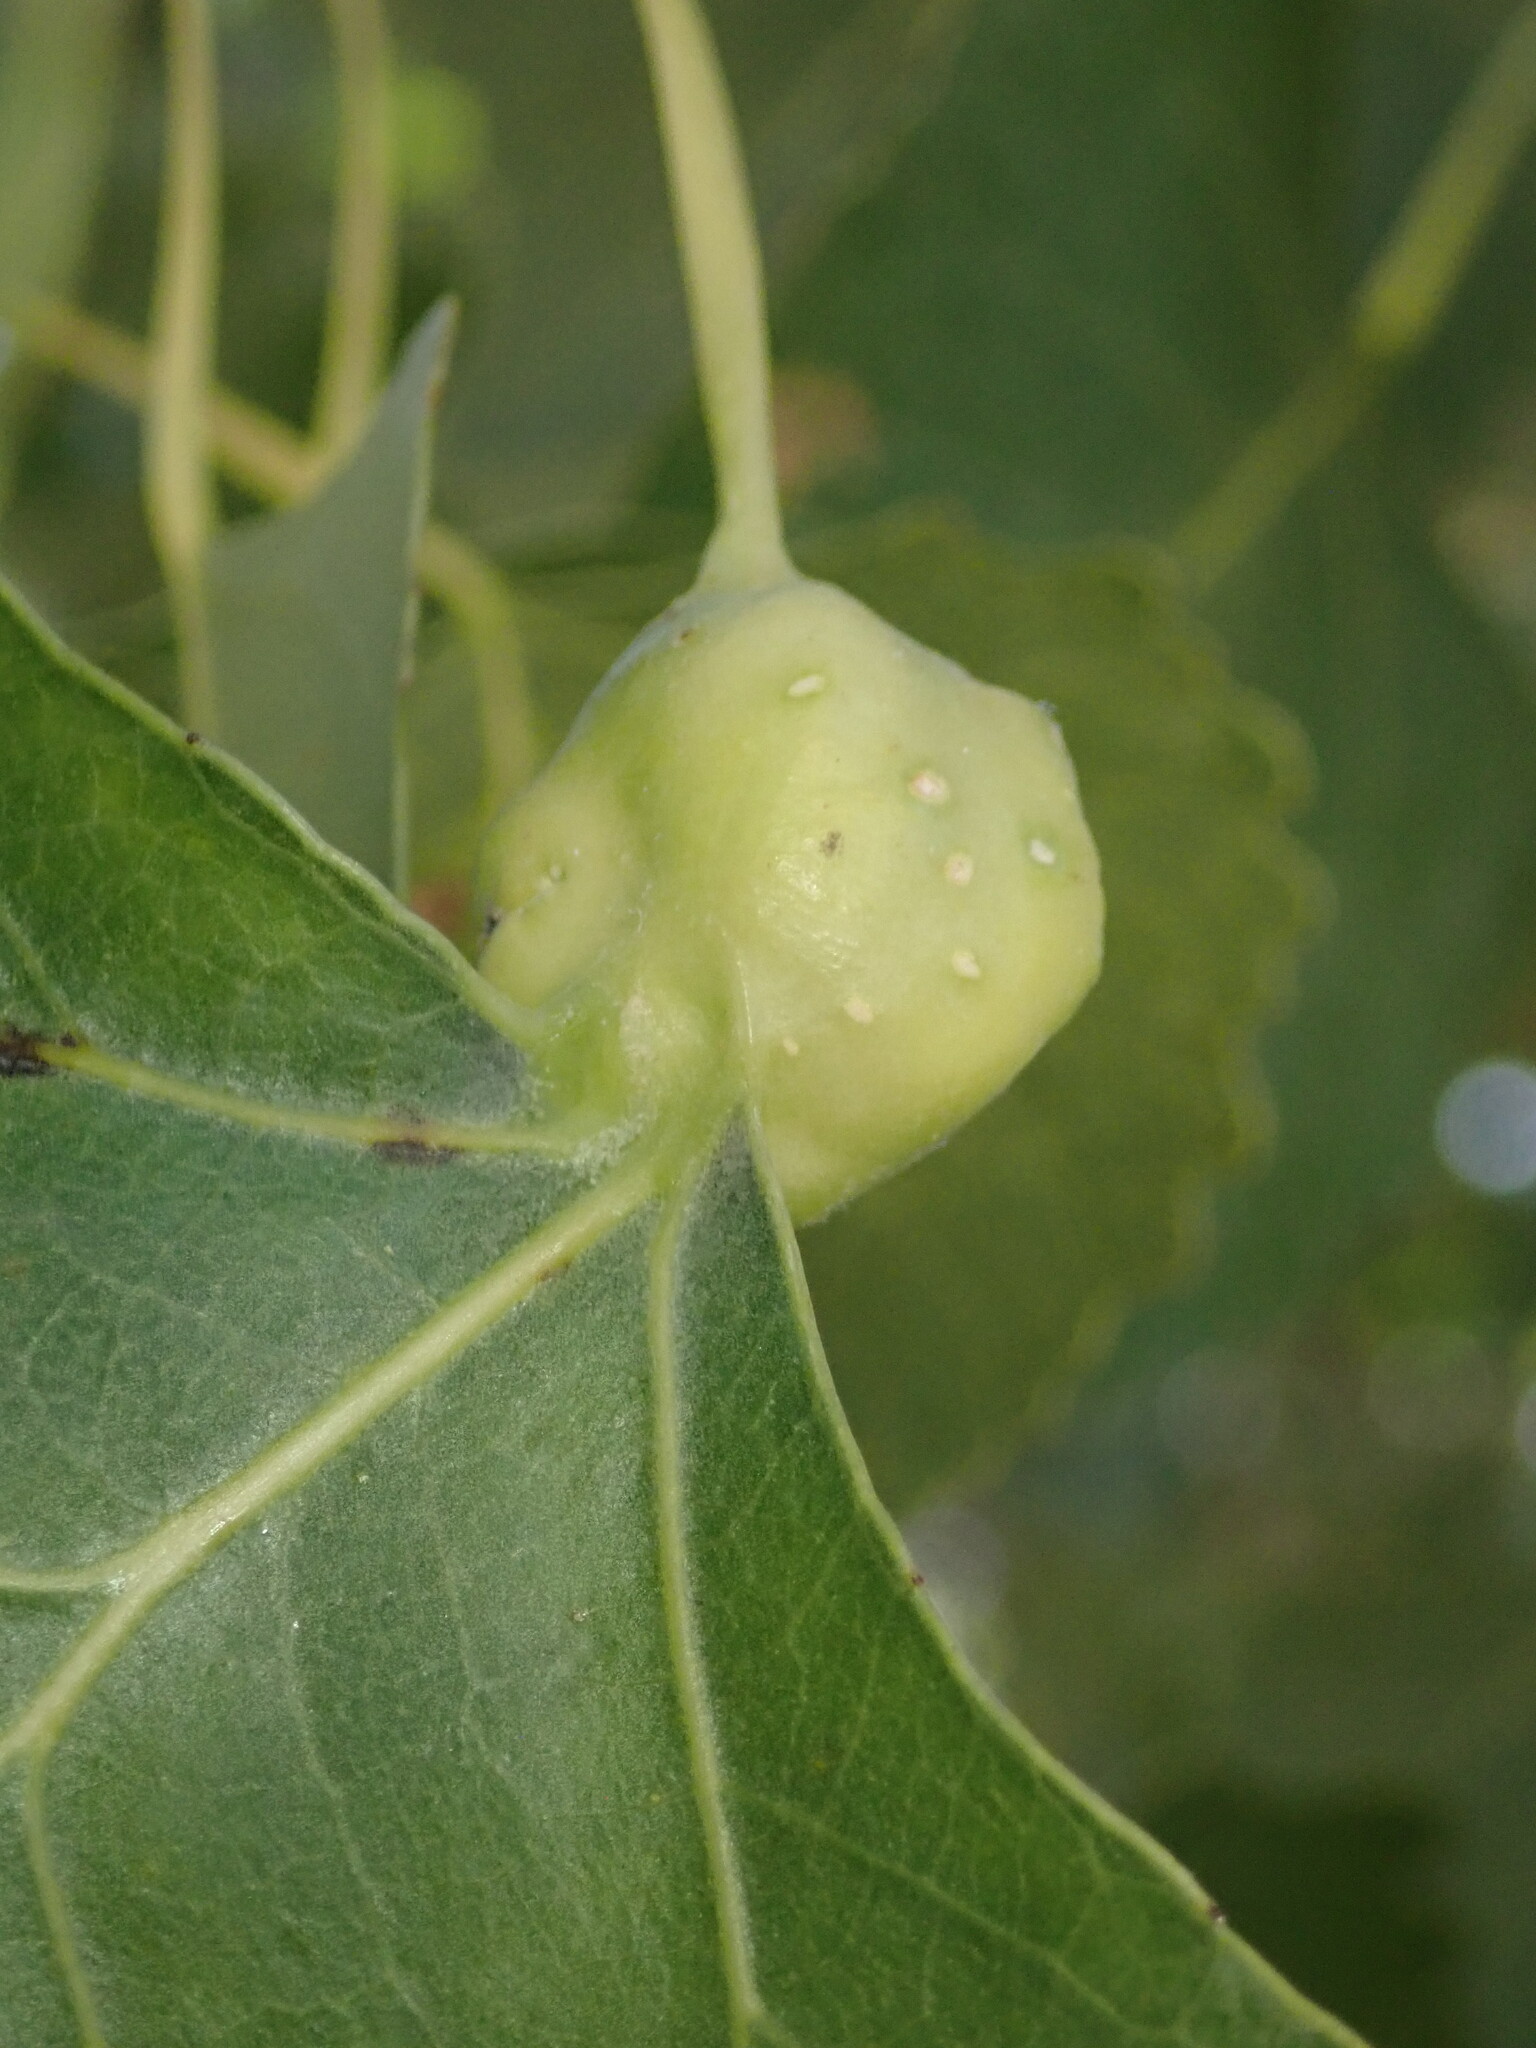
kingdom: Animalia
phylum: Arthropoda
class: Insecta
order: Hemiptera
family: Aphididae
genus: Pemphigus
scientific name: Pemphigus obesinymphae
